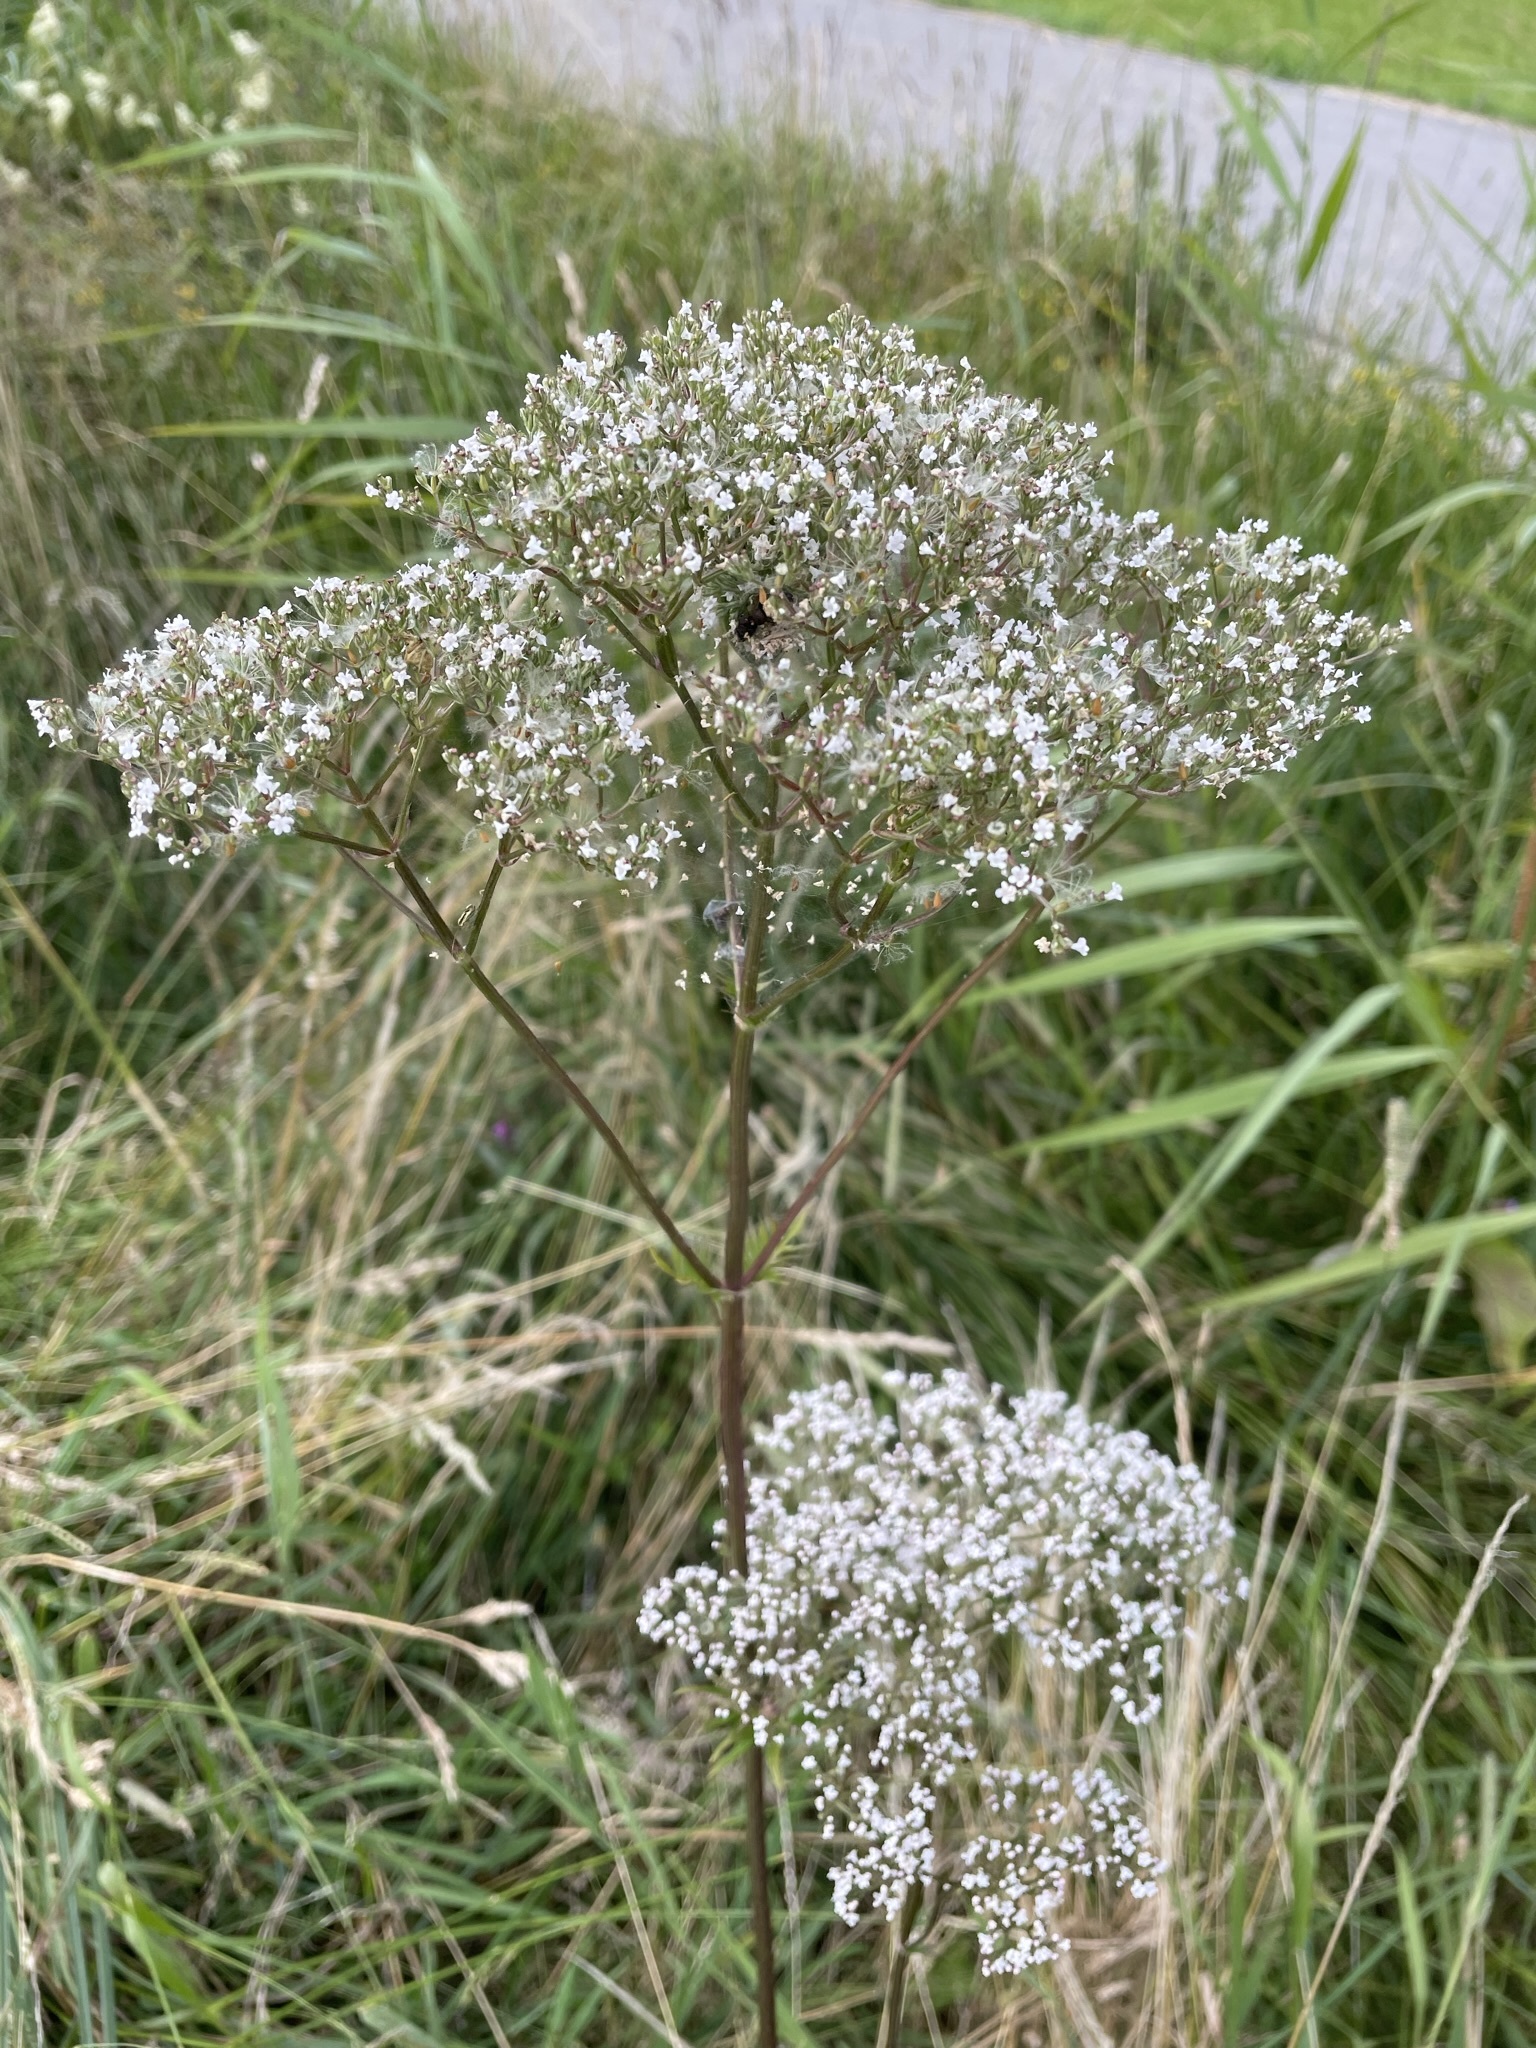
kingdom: Plantae
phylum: Tracheophyta
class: Magnoliopsida
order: Dipsacales
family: Caprifoliaceae
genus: Valeriana
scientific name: Valeriana officinalis
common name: Common valerian
